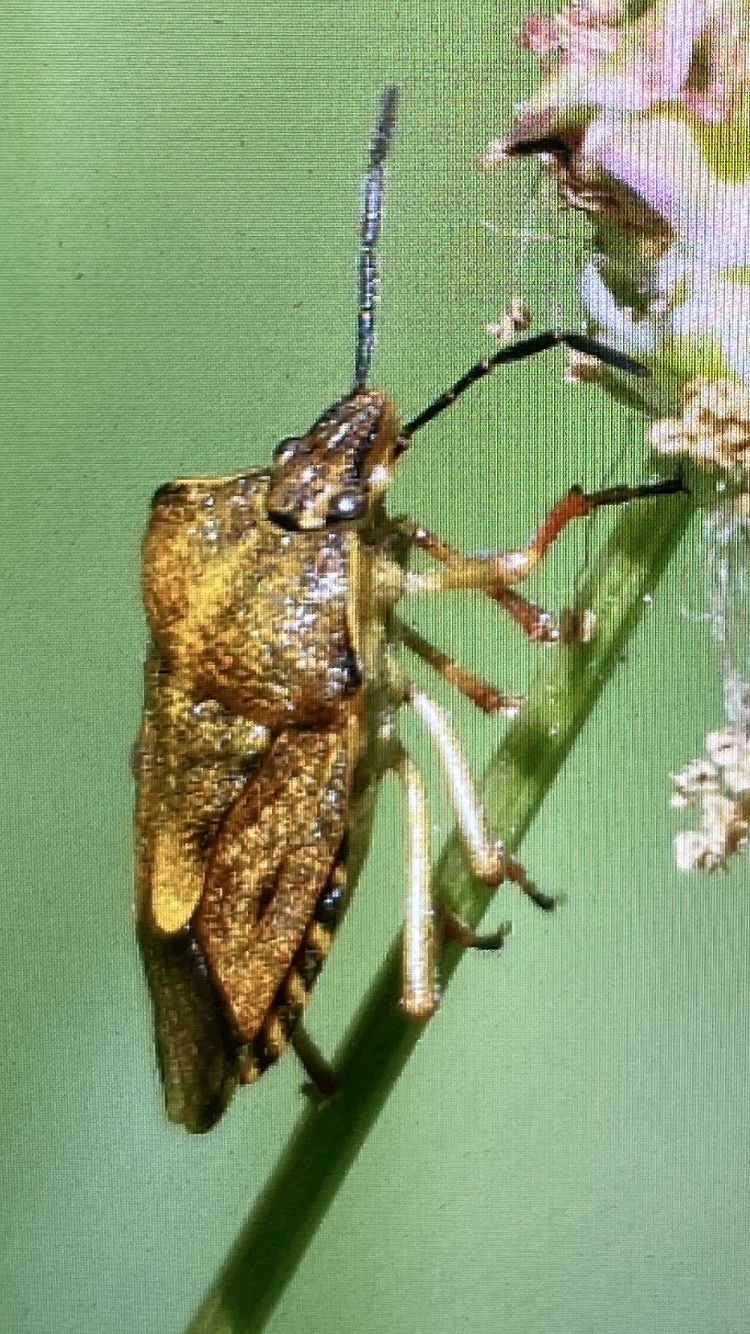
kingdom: Animalia
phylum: Arthropoda
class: Insecta
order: Hemiptera
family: Pentatomidae
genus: Carpocoris
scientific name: Carpocoris purpureipennis
